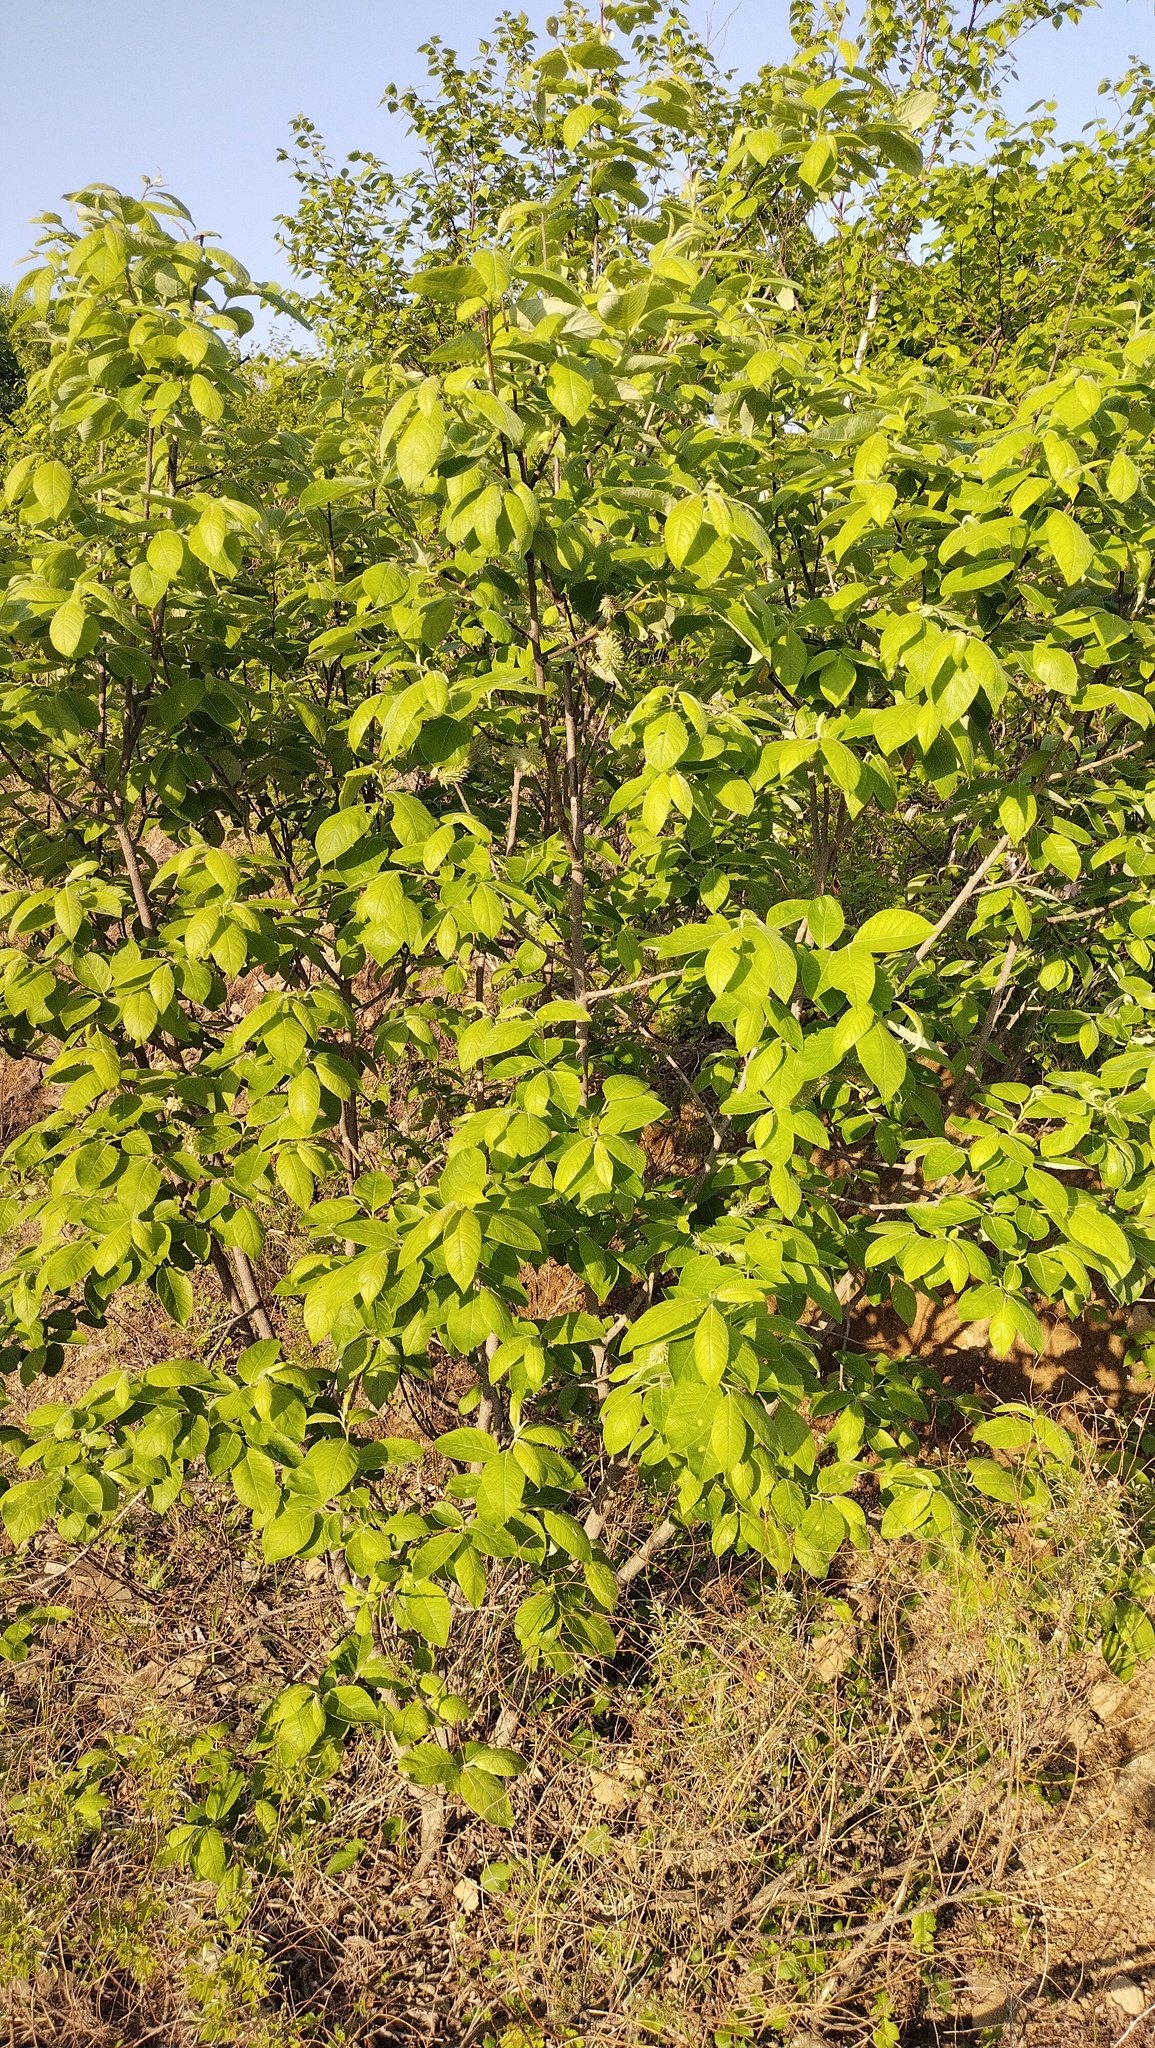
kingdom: Plantae
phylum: Tracheophyta
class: Magnoliopsida
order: Malpighiales
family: Salicaceae
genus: Salix
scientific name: Salix caprea
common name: Goat willow
